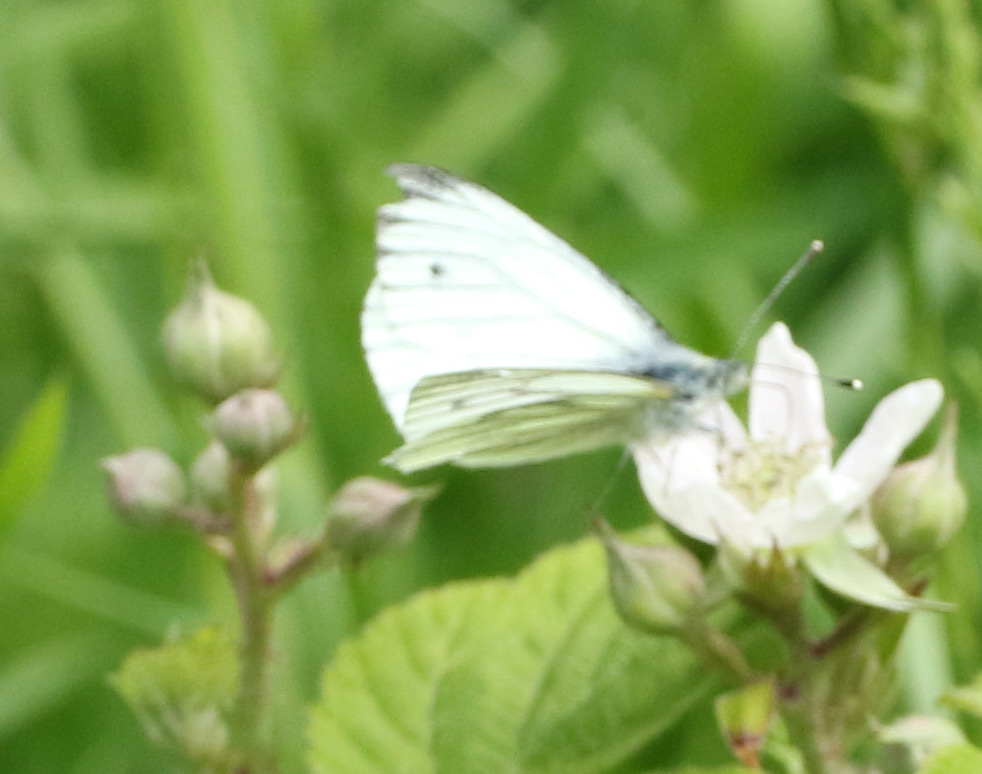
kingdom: Animalia
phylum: Arthropoda
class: Insecta
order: Lepidoptera
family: Pieridae
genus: Pieris
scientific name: Pieris napi
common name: Green-veined white
